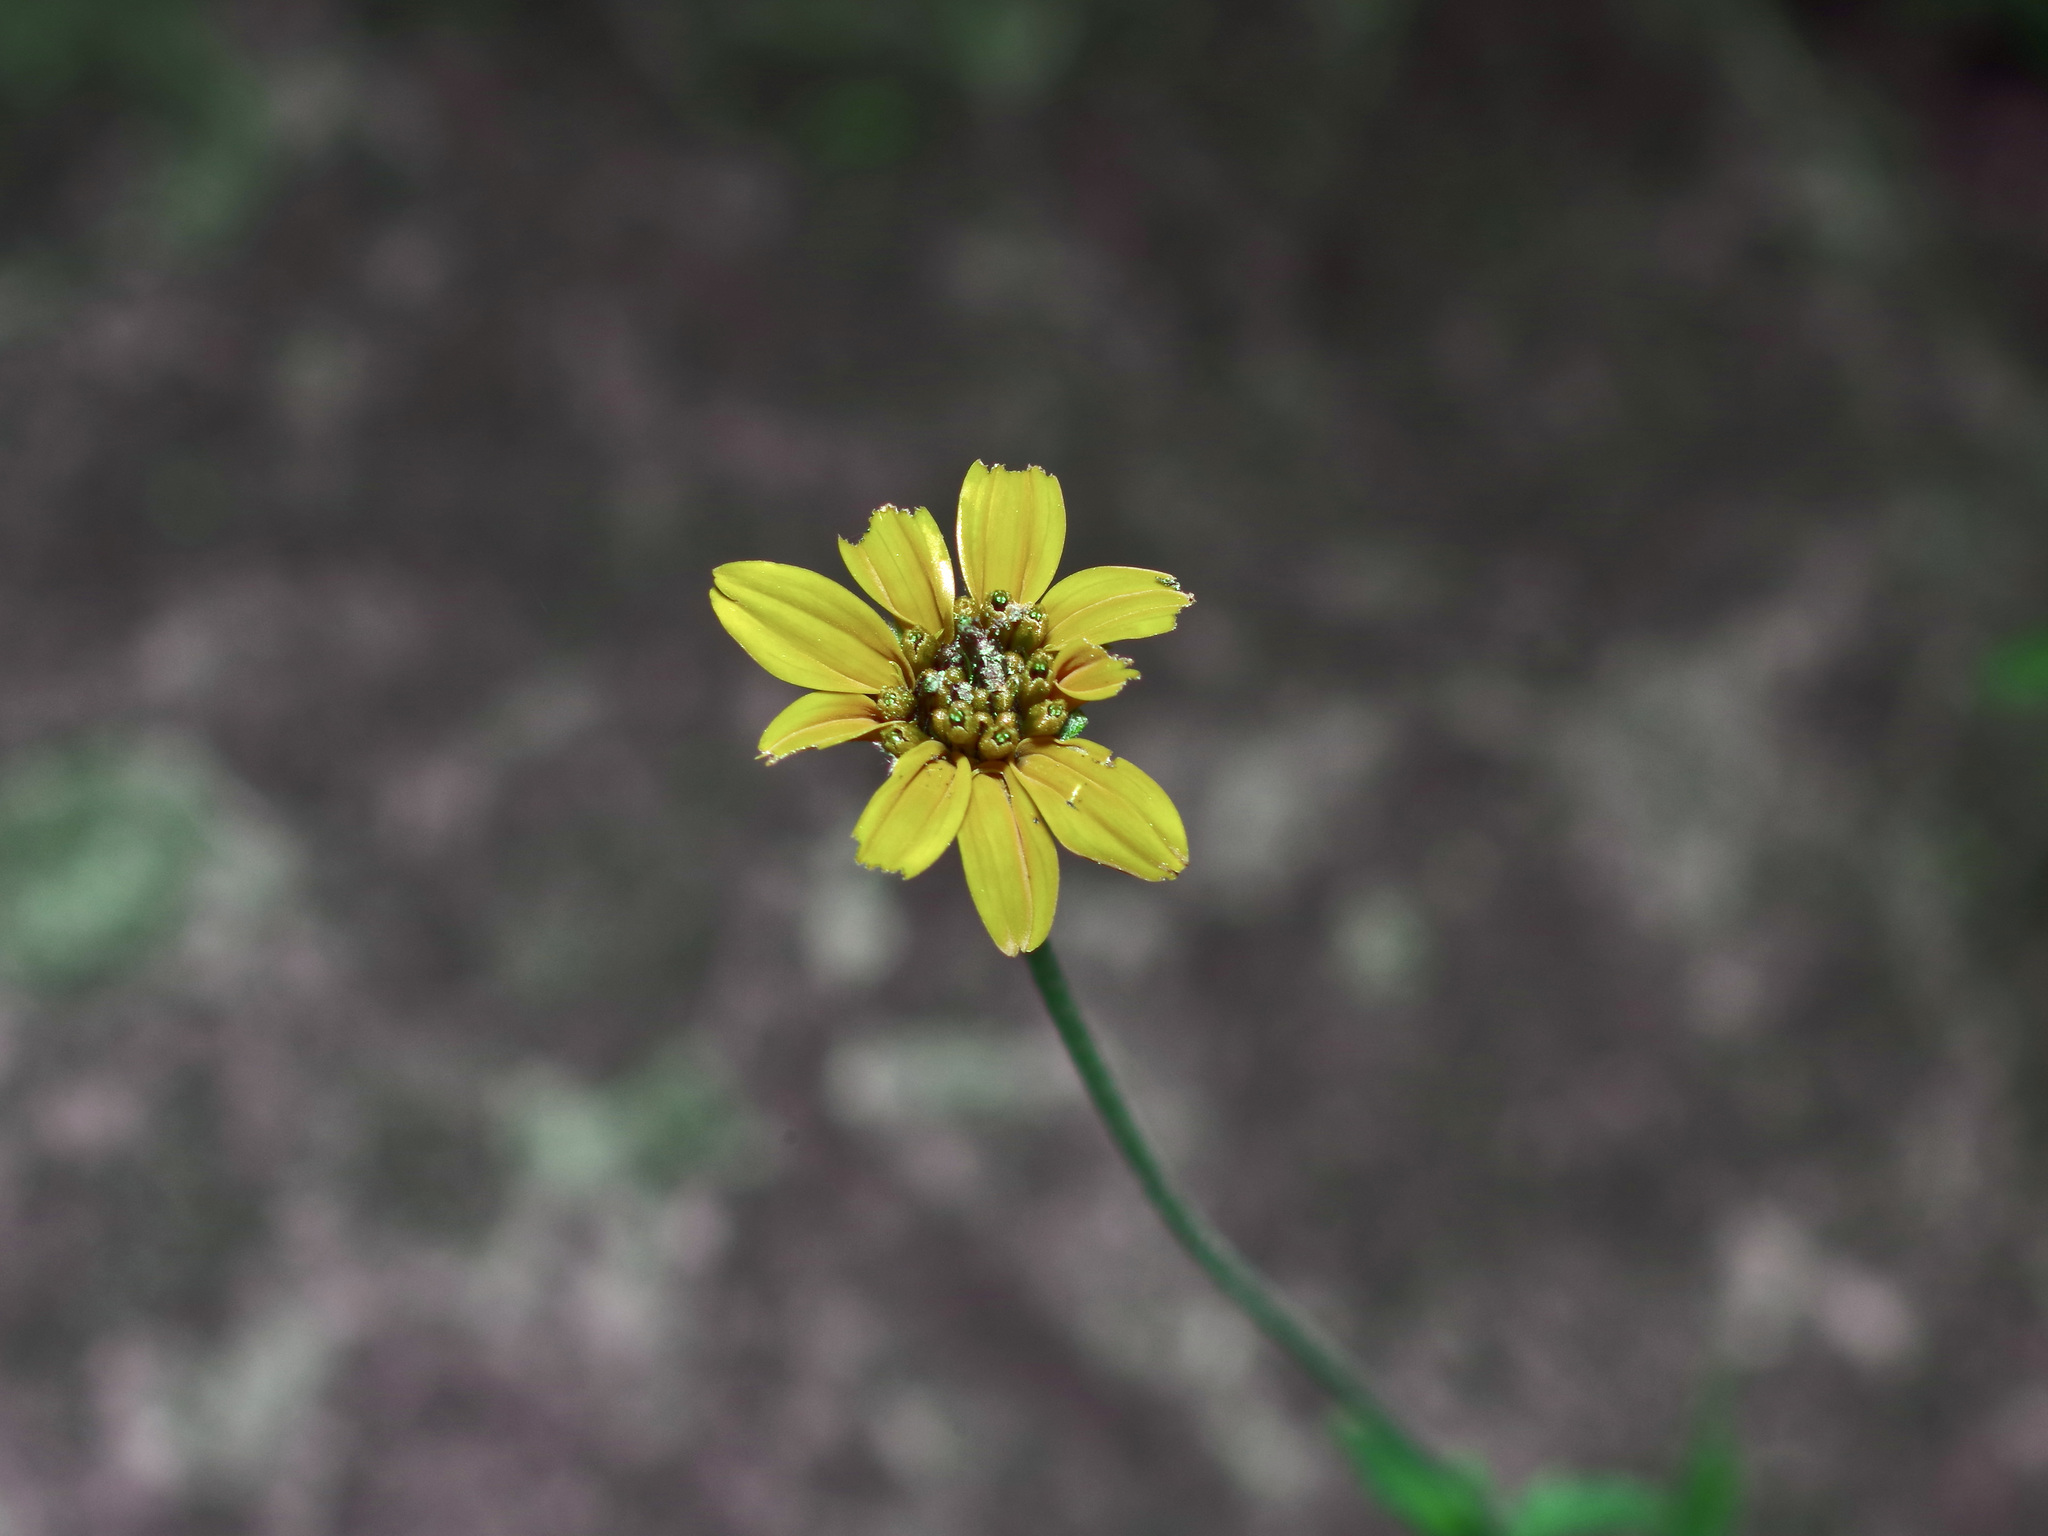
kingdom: Plantae
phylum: Tracheophyta
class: Magnoliopsida
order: Asterales
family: Asteraceae
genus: Wedelia
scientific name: Wedelia acapulcensis
